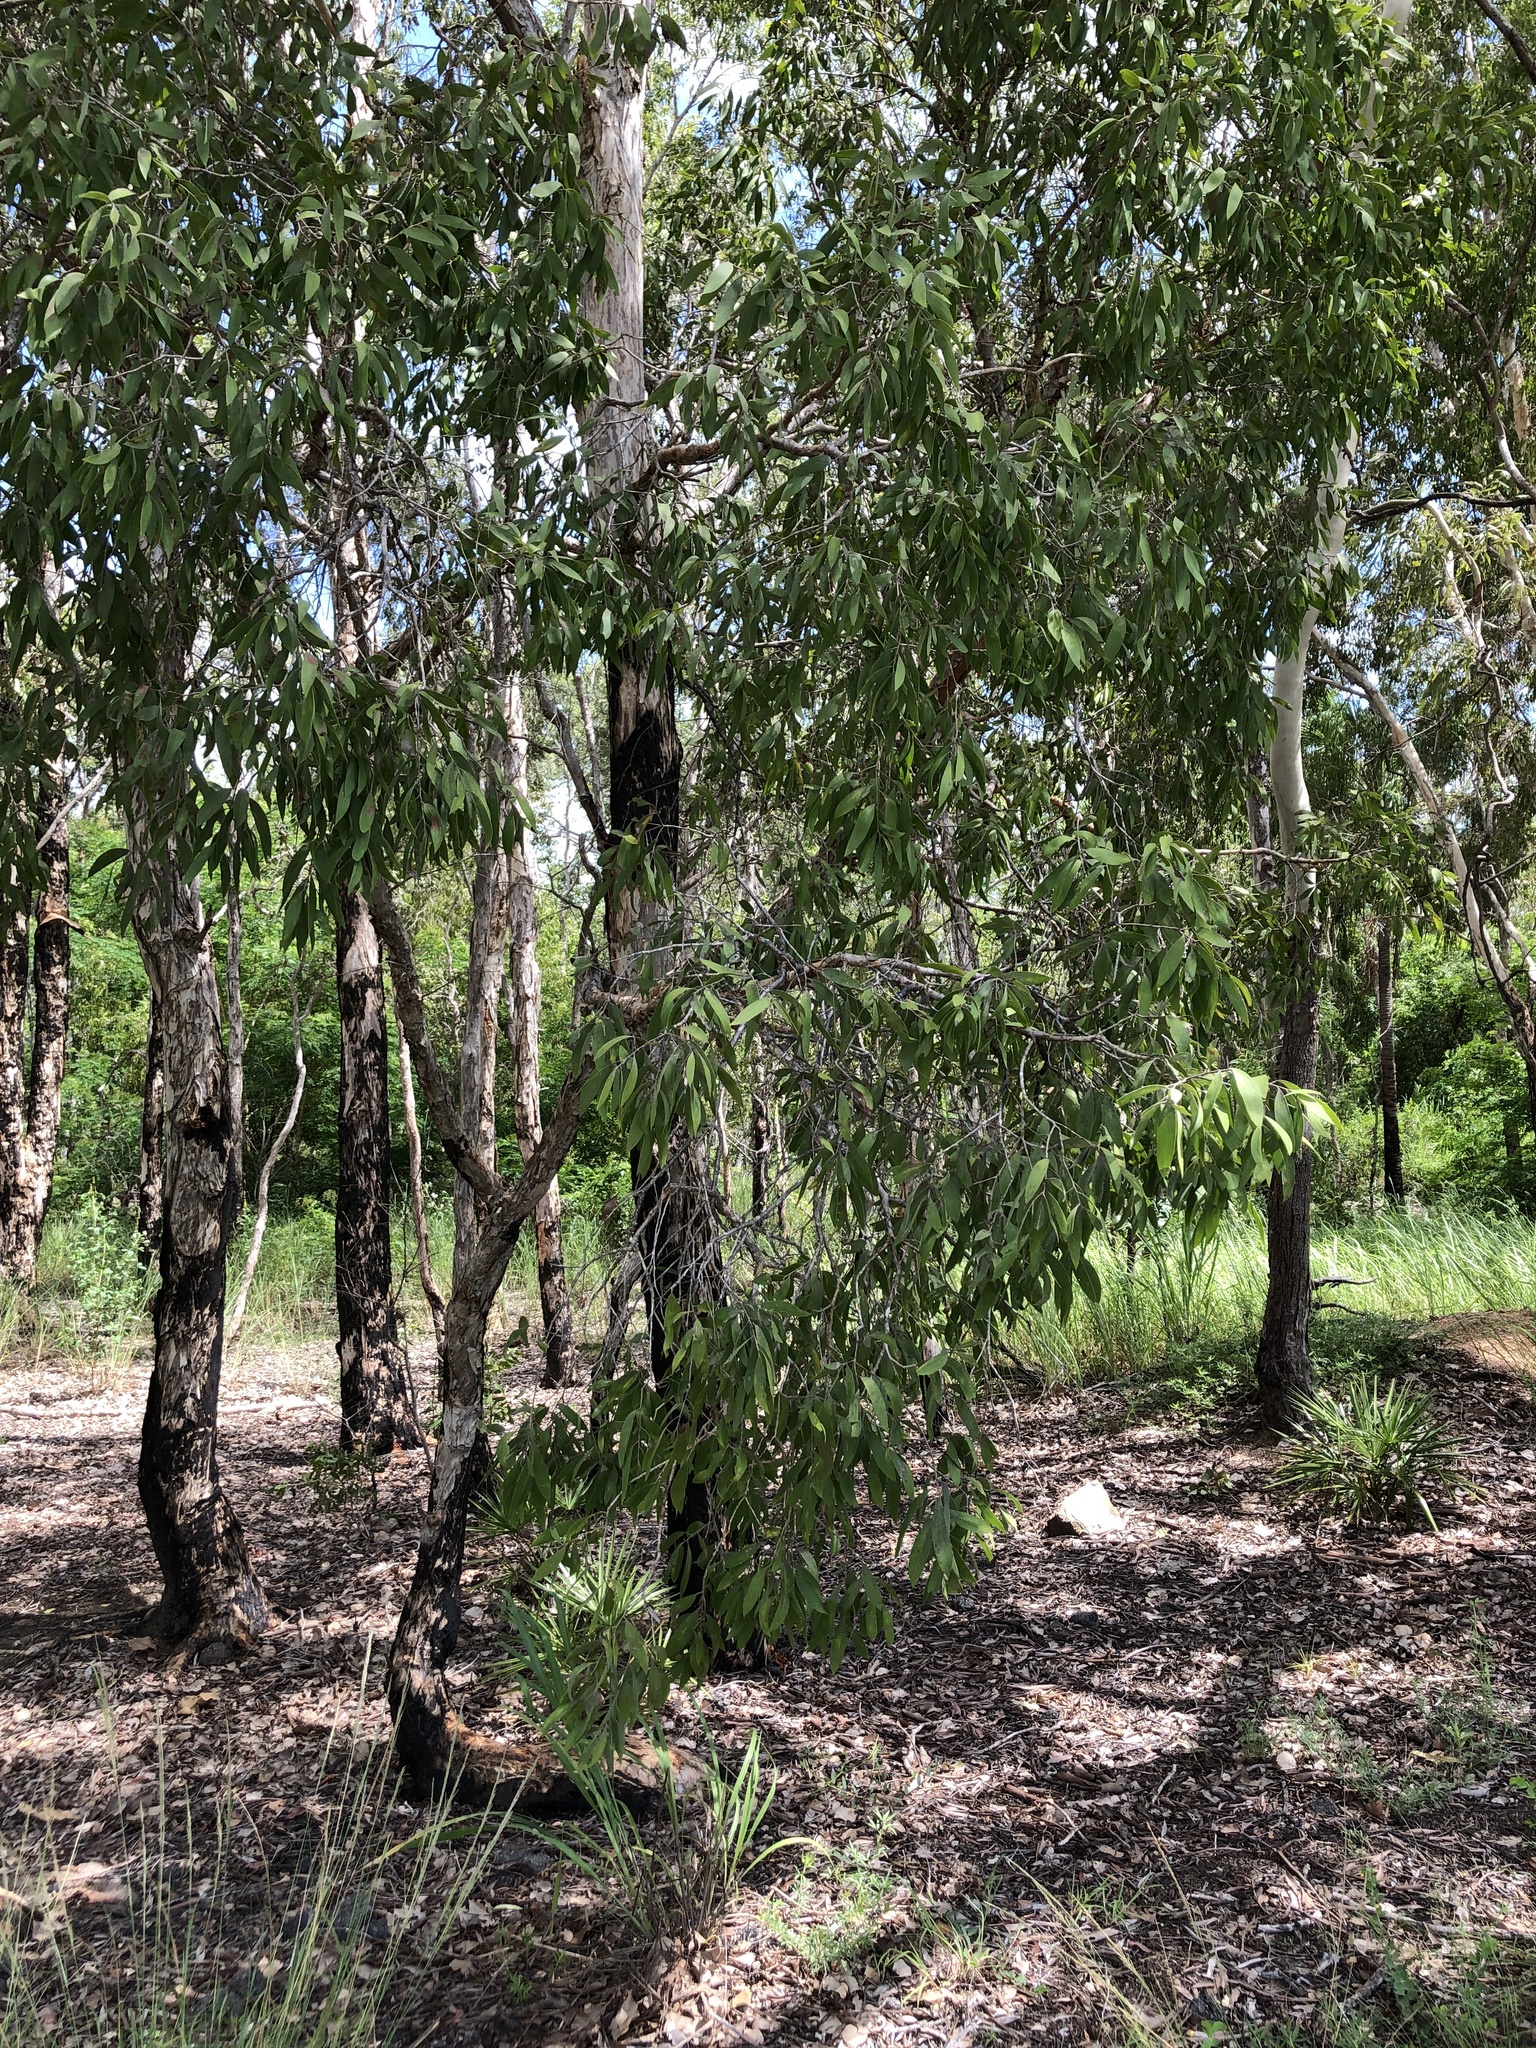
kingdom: Plantae
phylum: Tracheophyta
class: Magnoliopsida
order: Myrtales
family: Myrtaceae
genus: Melaleuca
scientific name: Melaleuca nervosa
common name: Fibrebark
